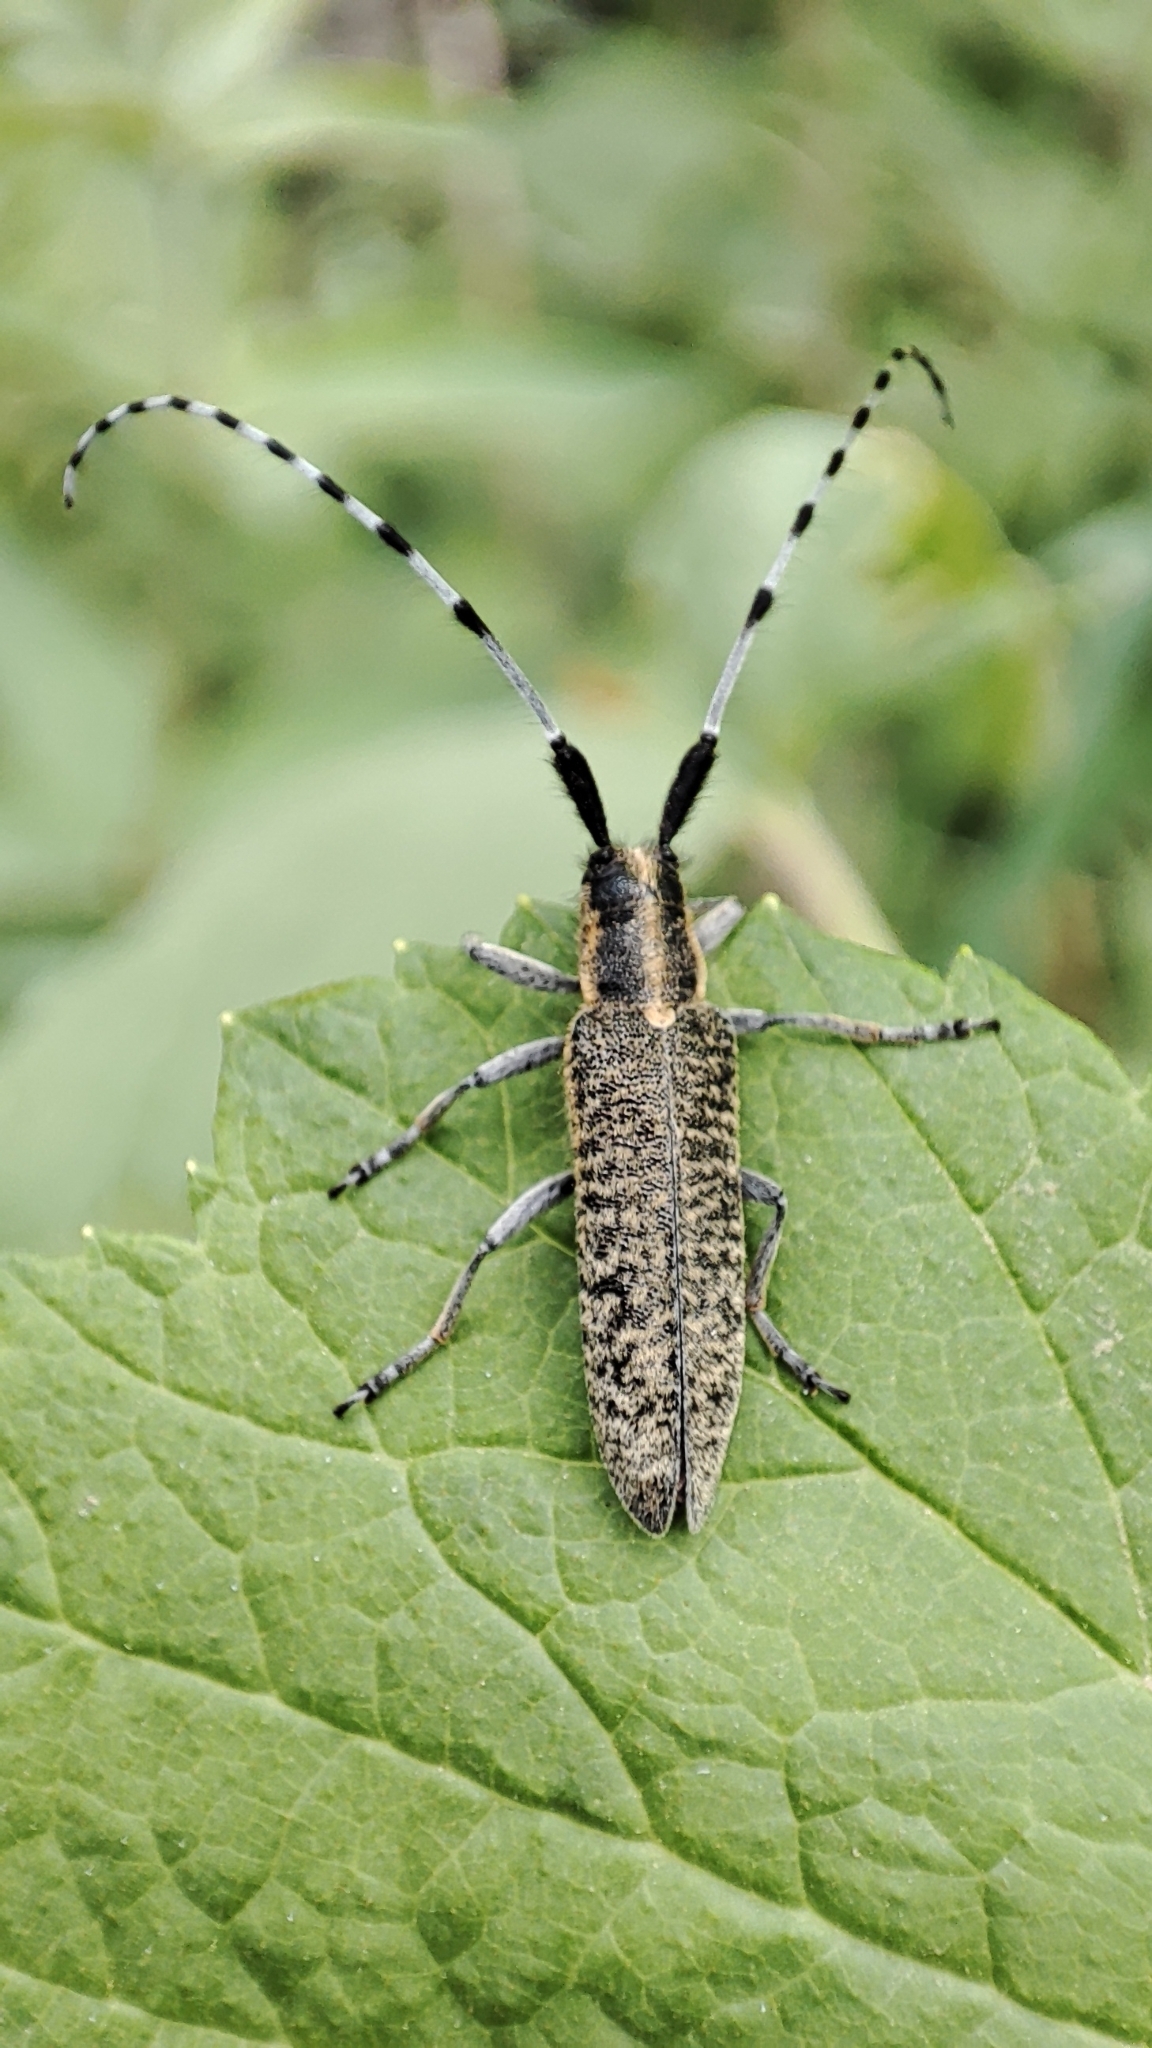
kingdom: Animalia
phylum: Arthropoda
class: Insecta
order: Coleoptera
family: Cerambycidae
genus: Agapanthia
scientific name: Agapanthia villosoviridescens
